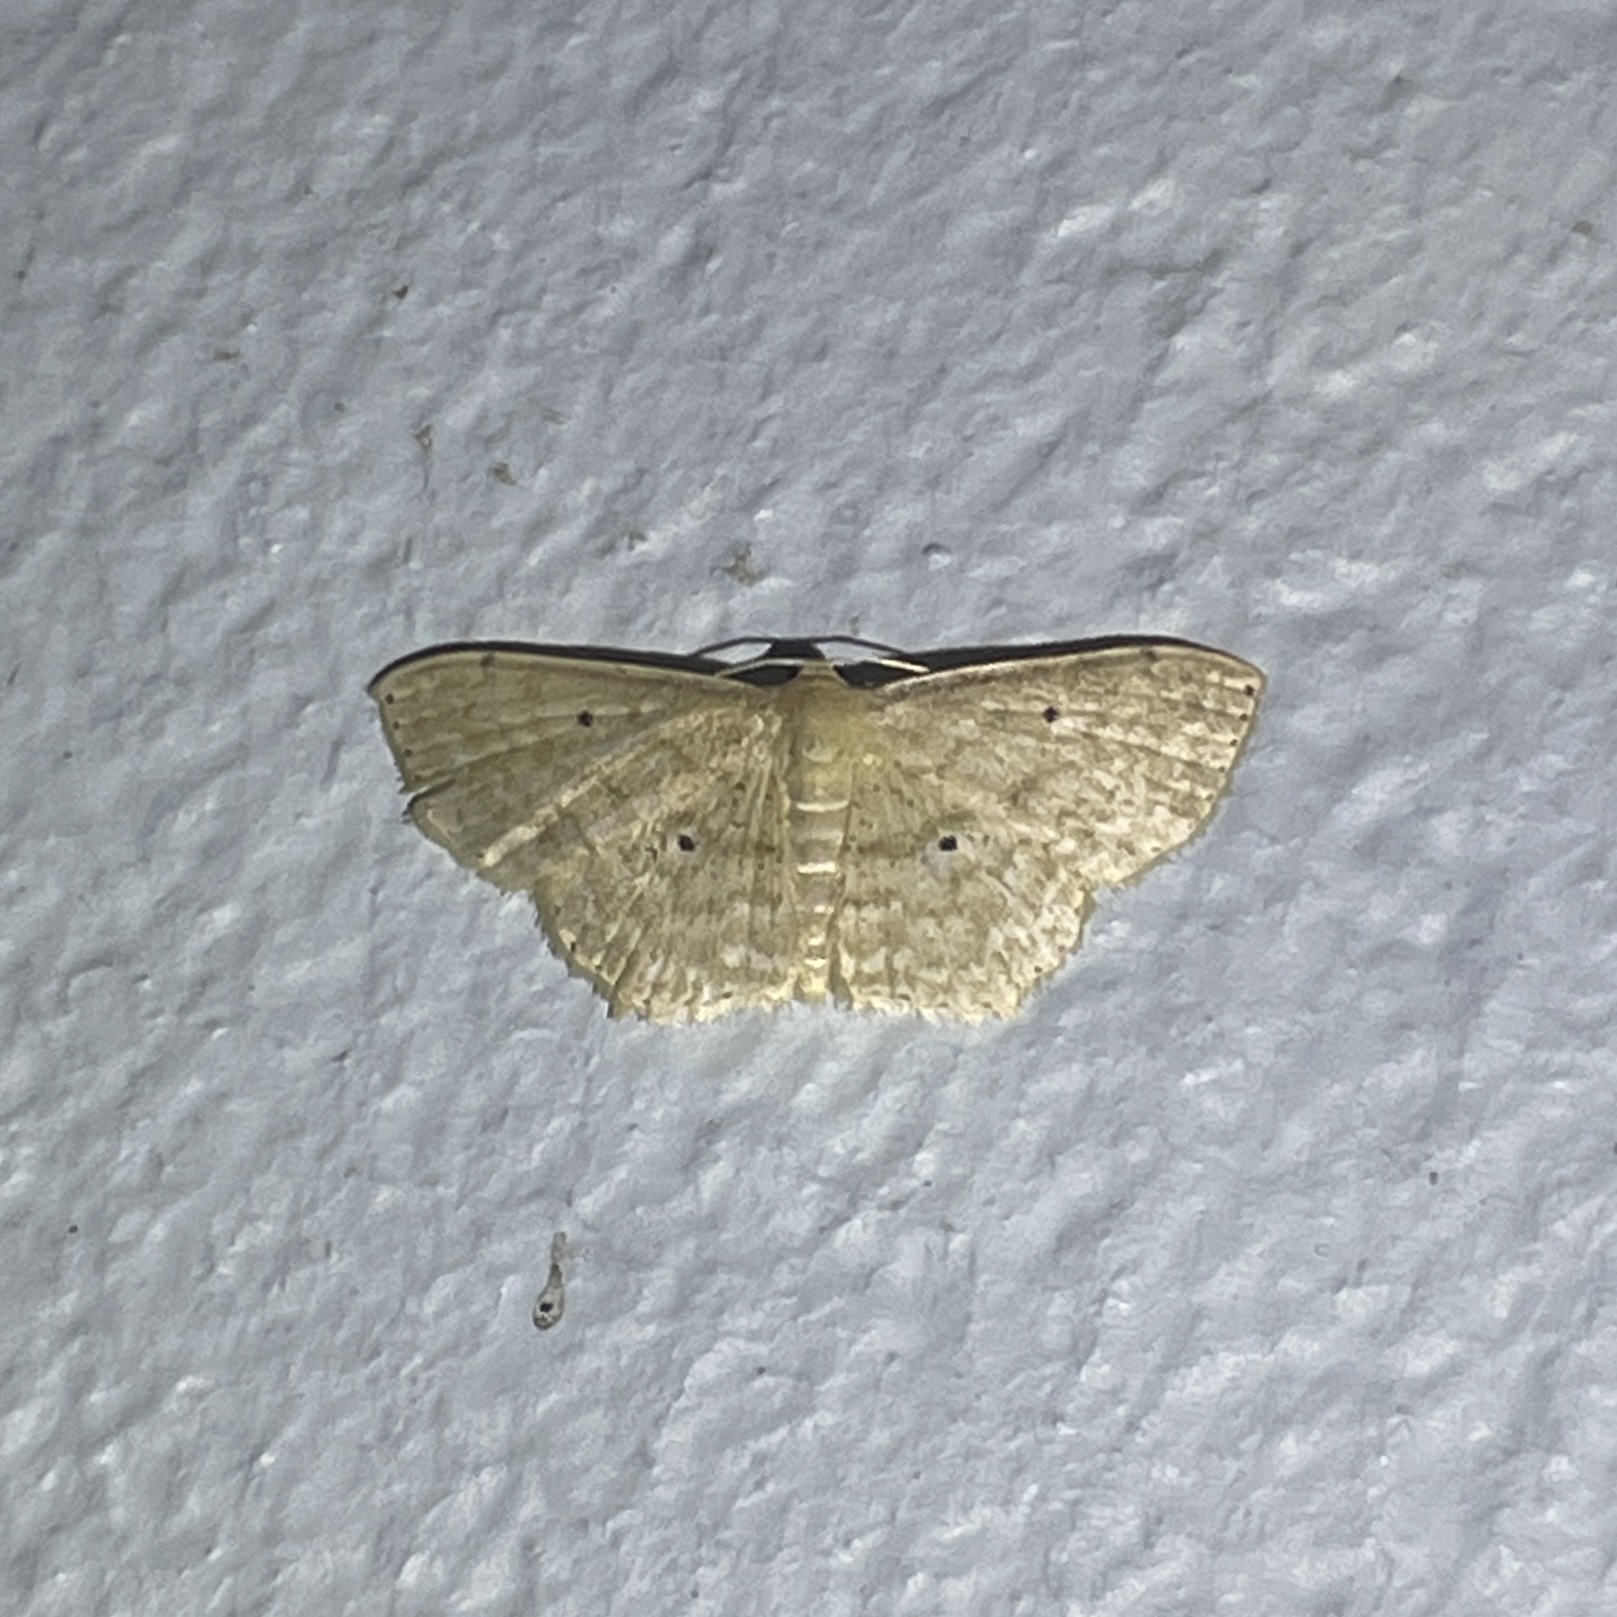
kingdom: Animalia
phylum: Arthropoda
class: Insecta
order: Lepidoptera
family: Geometridae
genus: Scopula
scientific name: Scopula apparitaria
